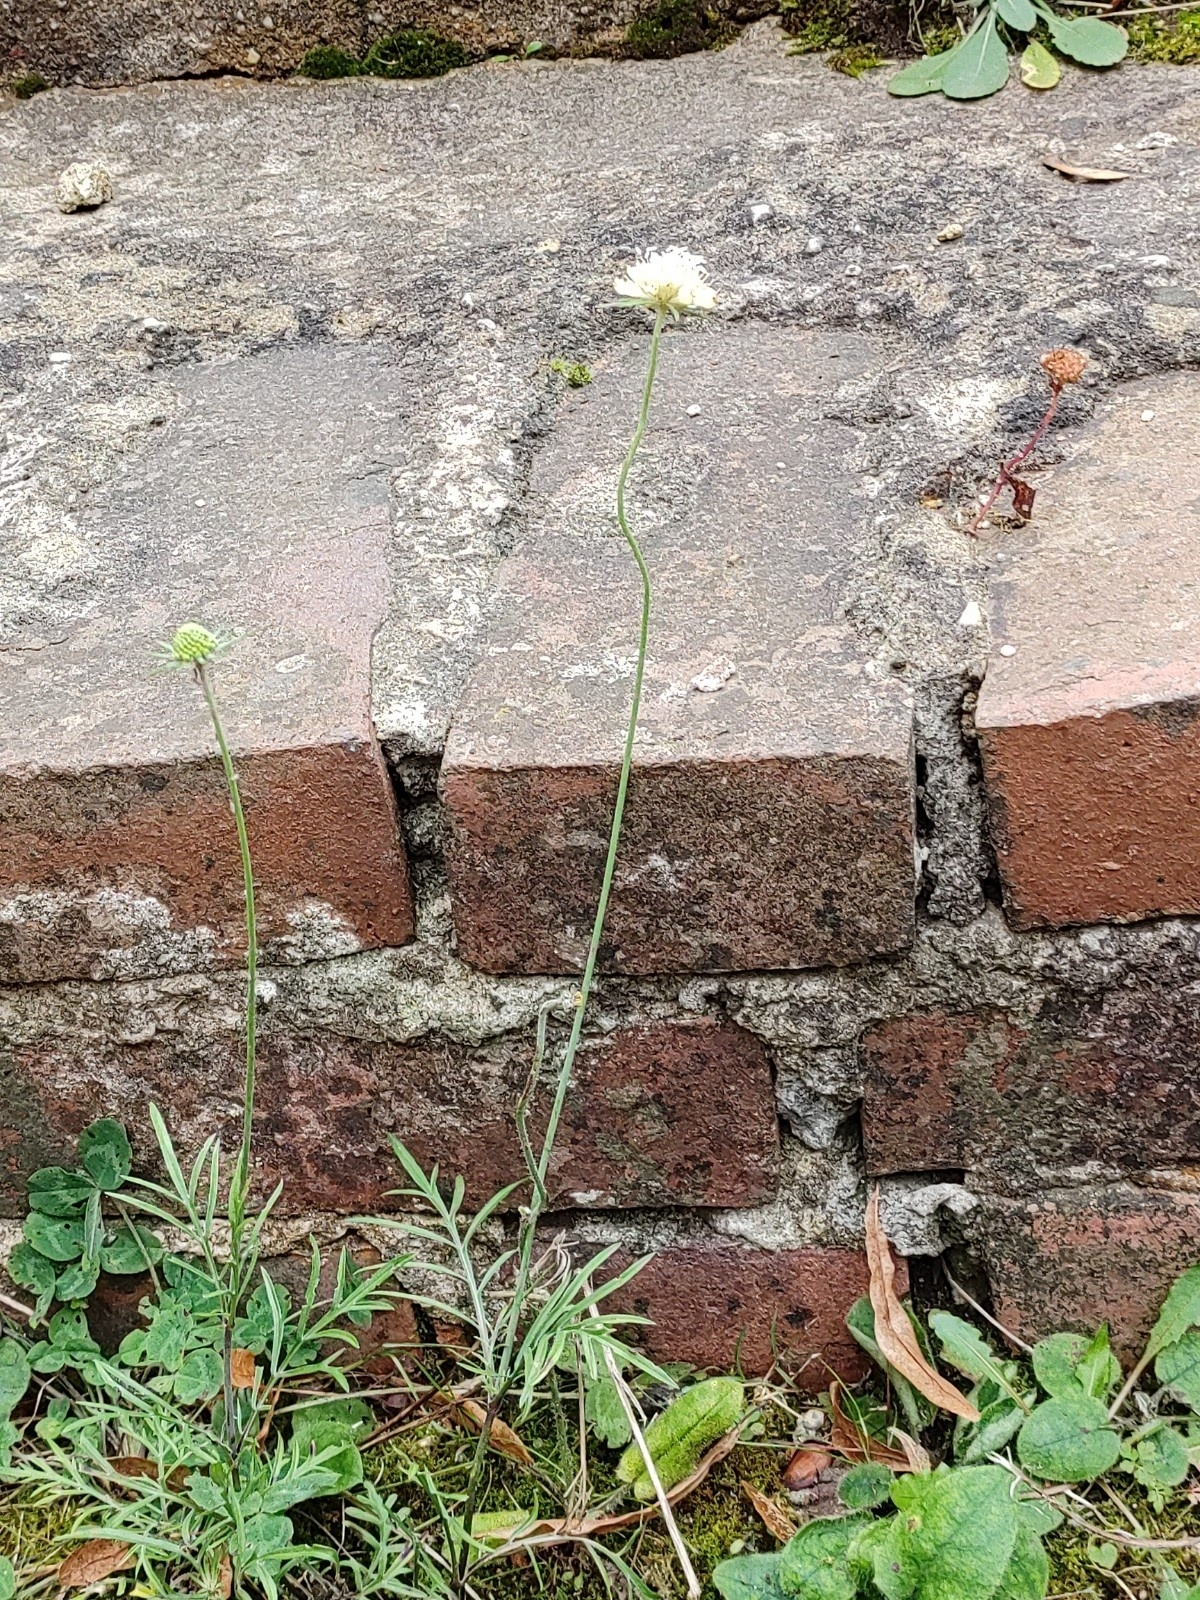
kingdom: Plantae
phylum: Tracheophyta
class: Magnoliopsida
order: Dipsacales
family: Caprifoliaceae
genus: Scabiosa
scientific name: Scabiosa ochroleuca
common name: Cream pincushions
